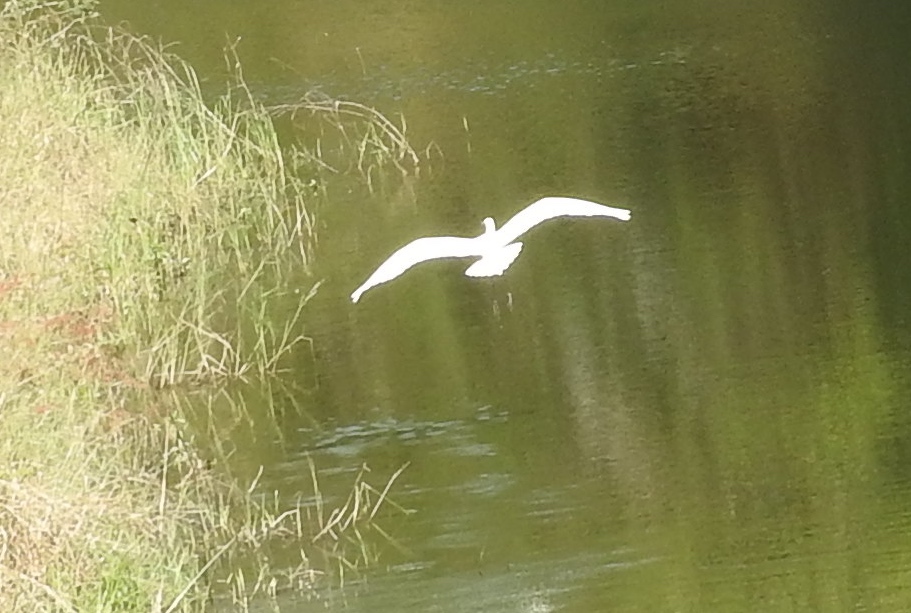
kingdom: Animalia
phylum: Chordata
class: Aves
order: Pelecaniformes
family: Ardeidae
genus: Egretta
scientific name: Egretta thula
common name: Snowy egret
